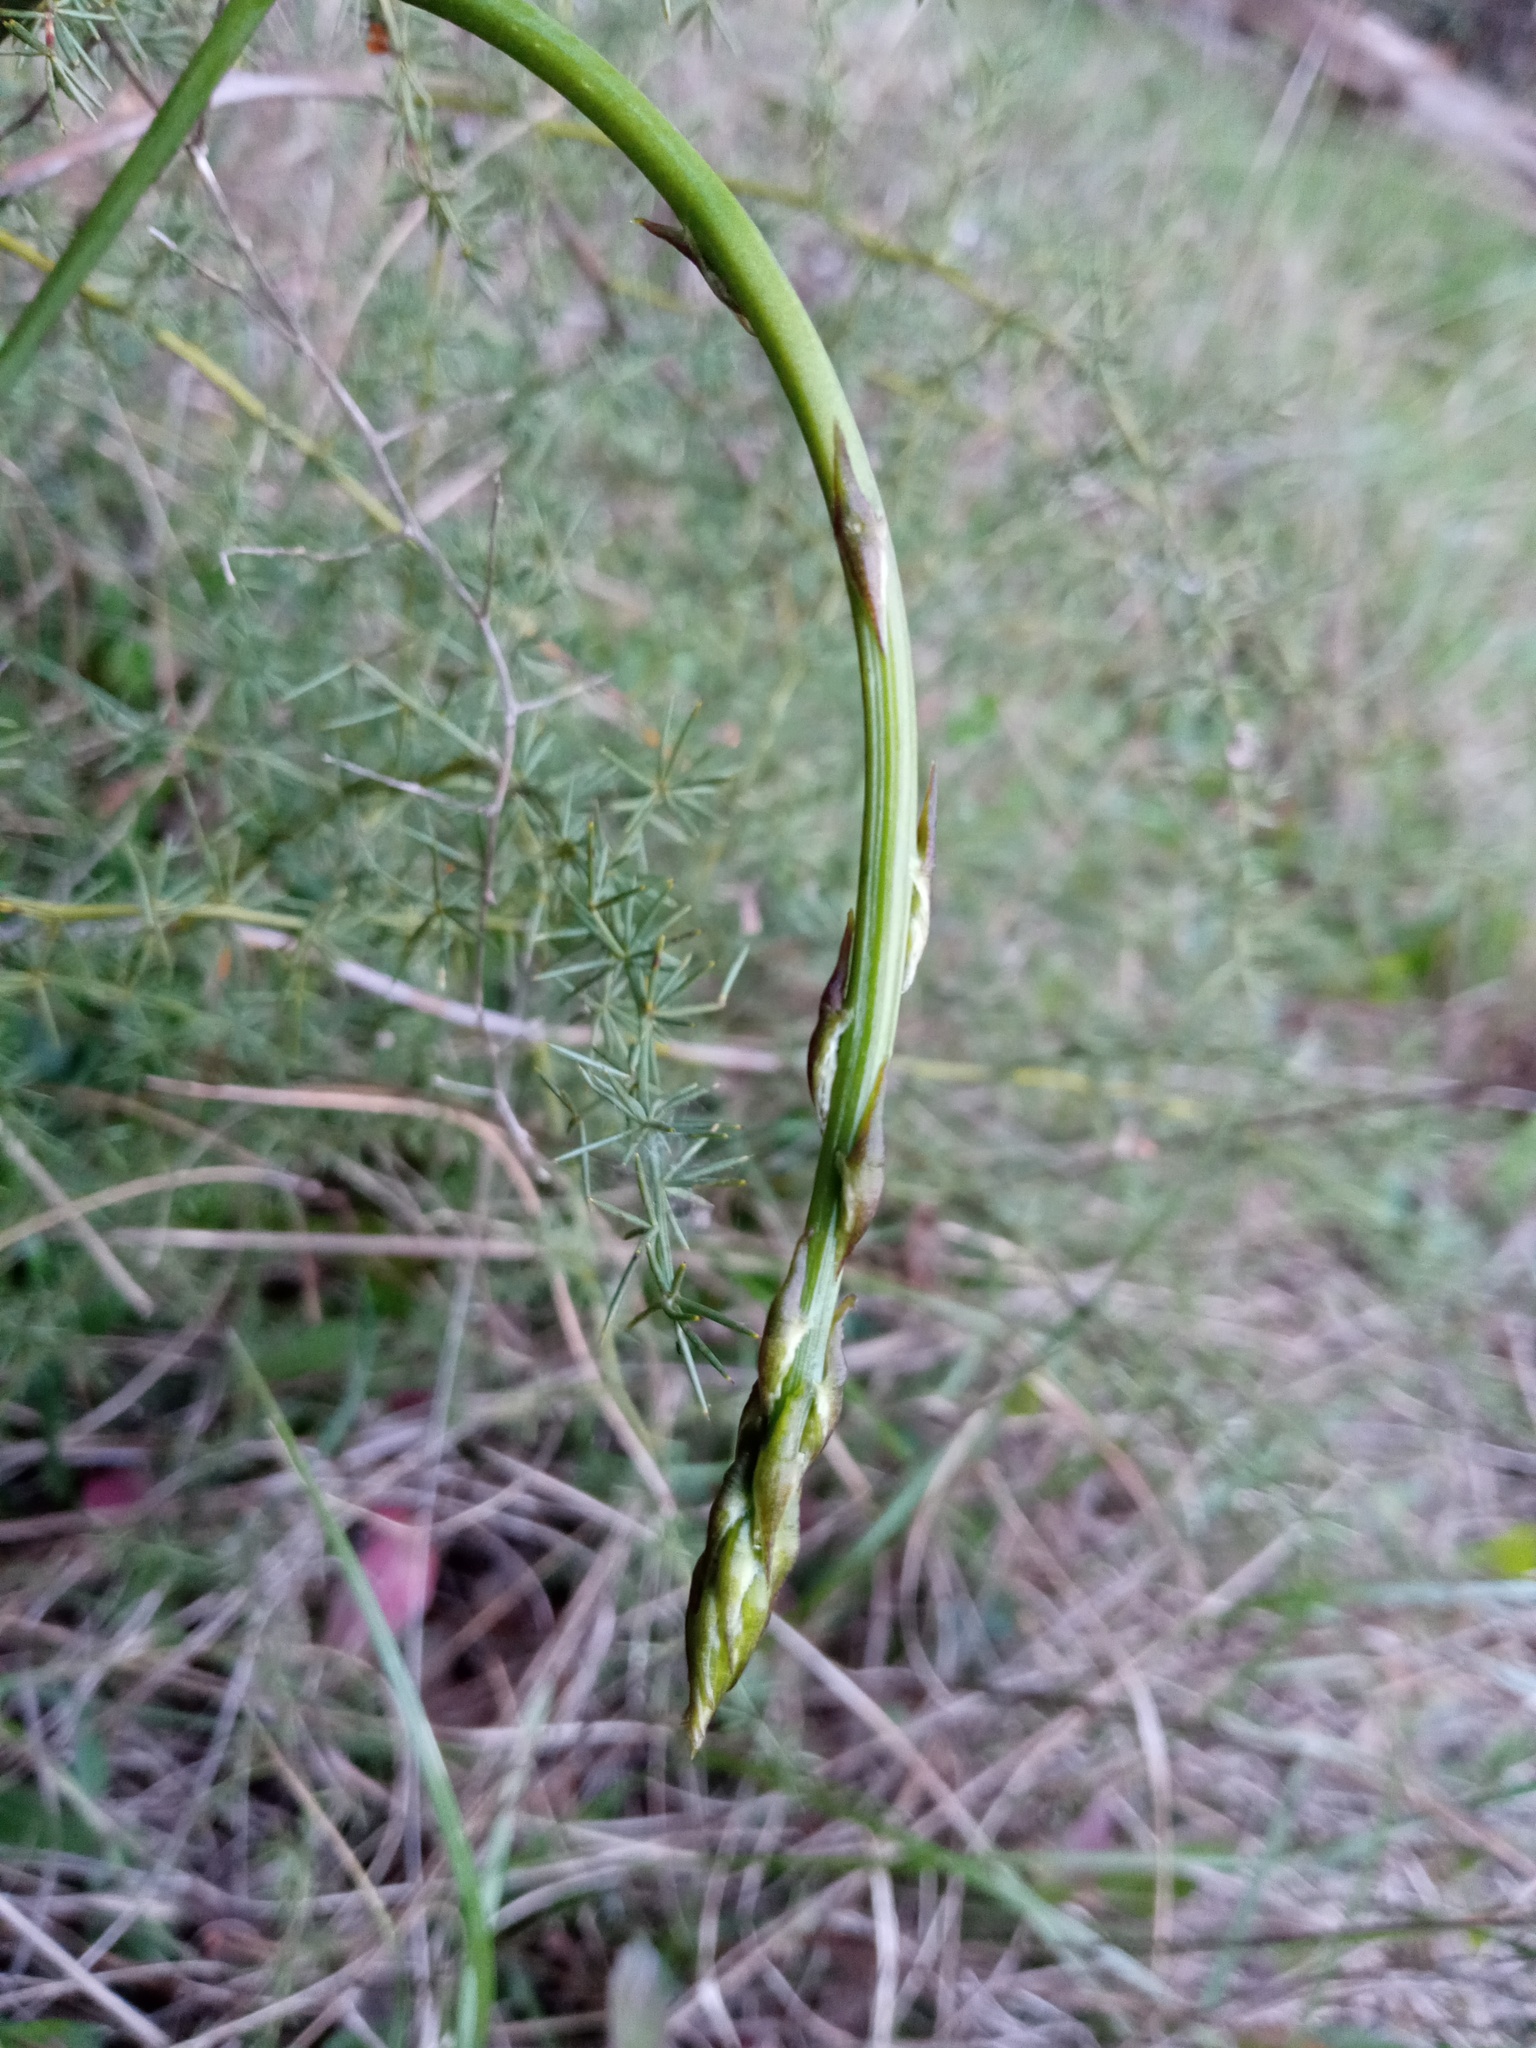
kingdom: Plantae
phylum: Tracheophyta
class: Liliopsida
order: Asparagales
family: Asparagaceae
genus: Asparagus
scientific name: Asparagus acutifolius
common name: Wild asparagus
